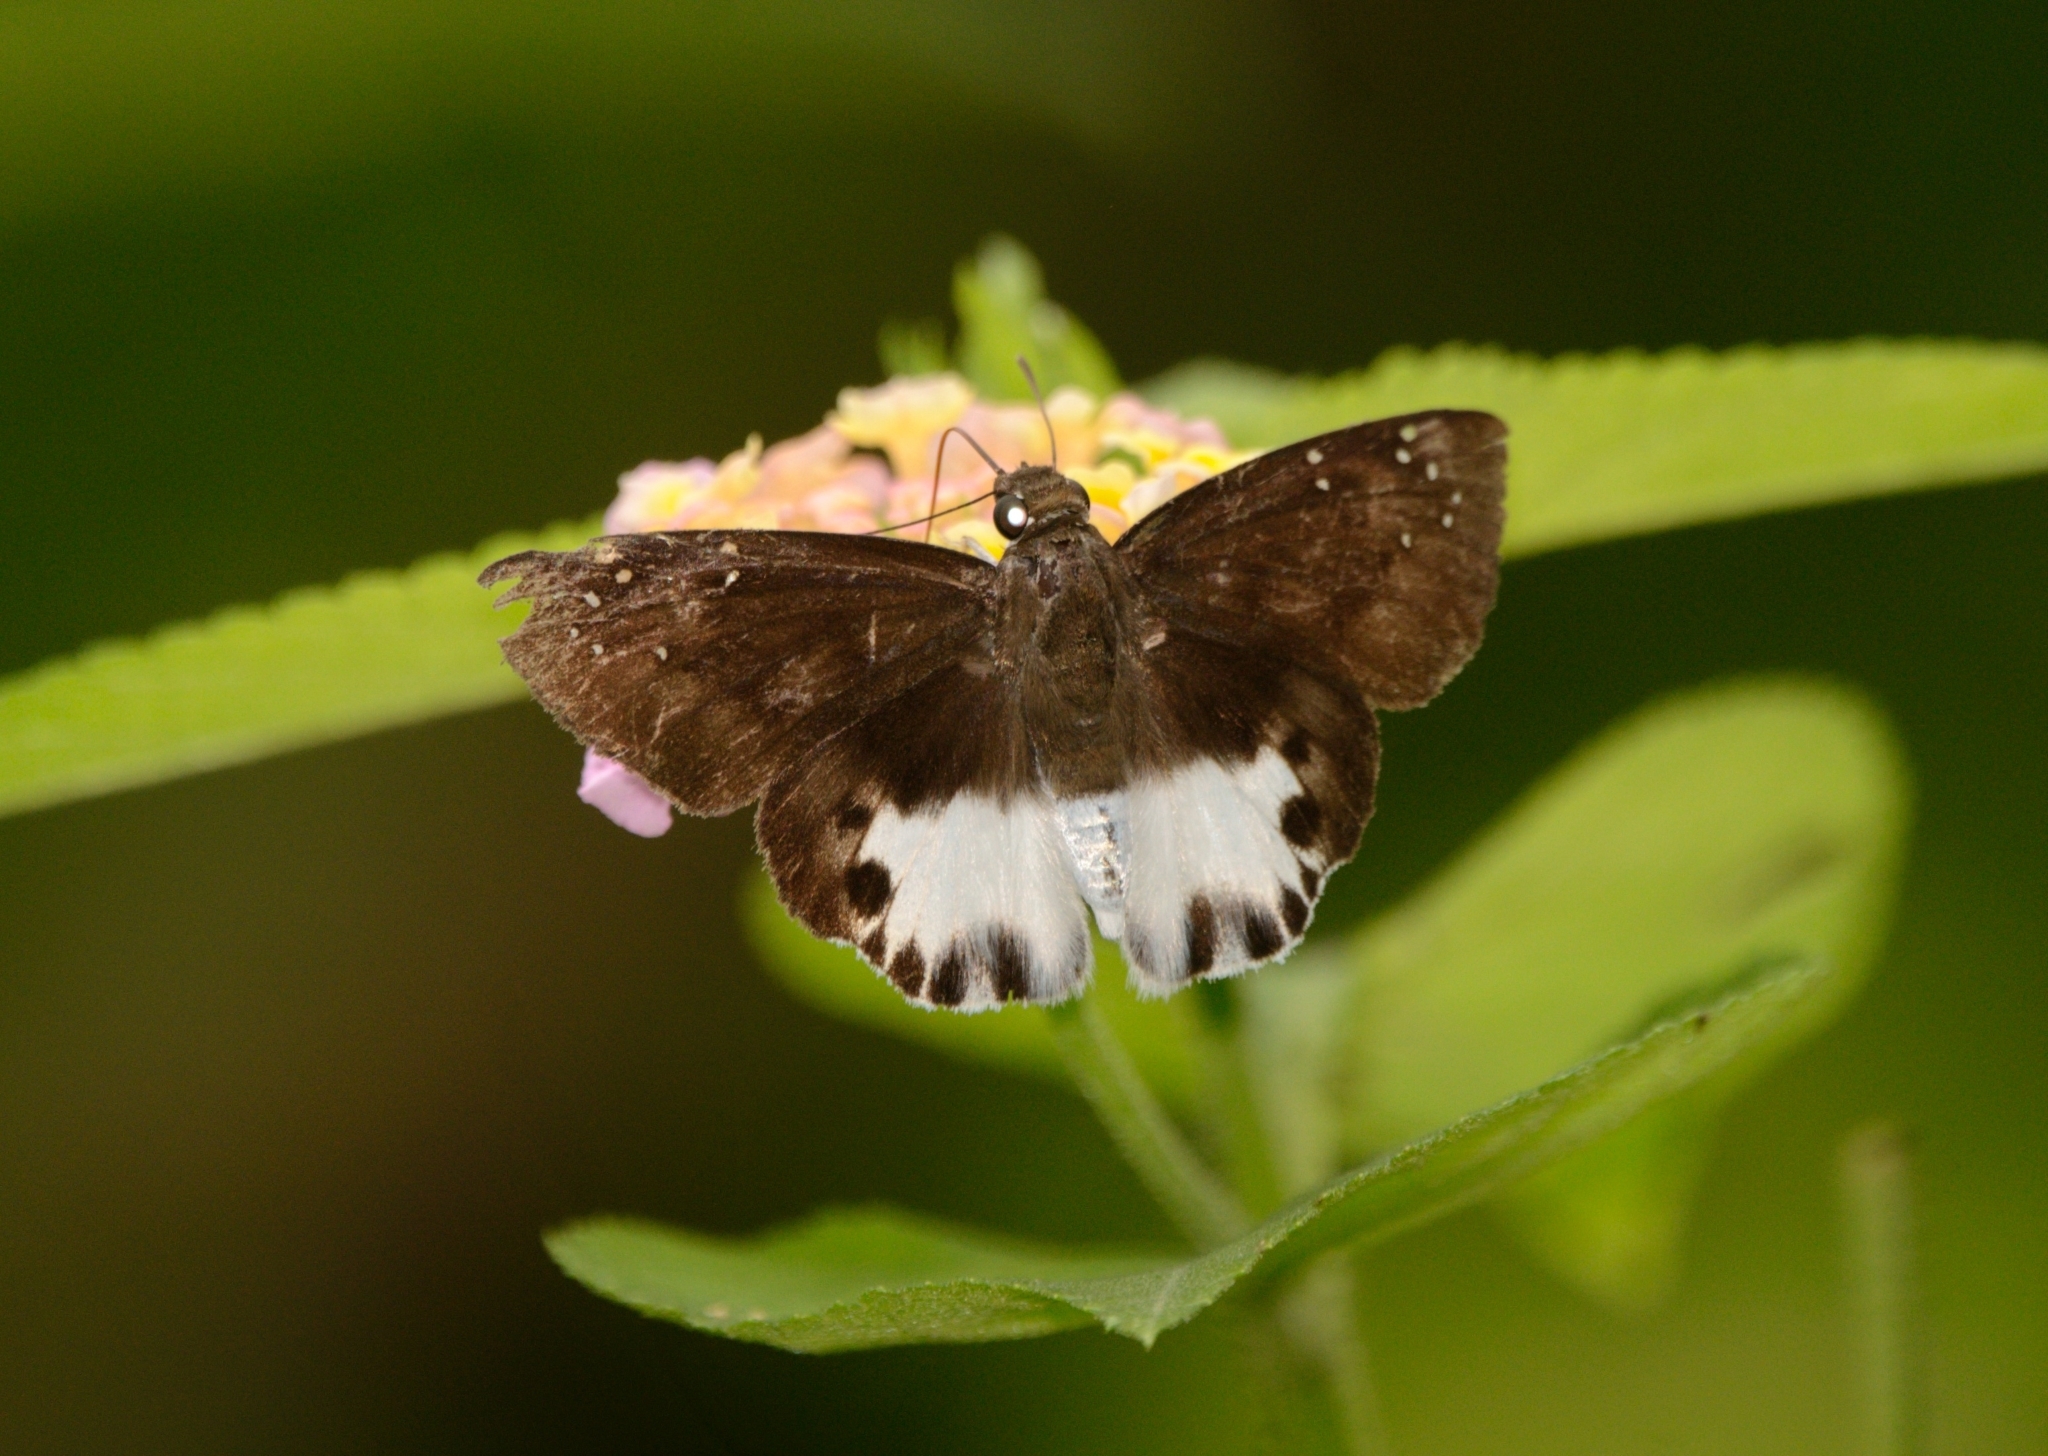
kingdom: Animalia
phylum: Arthropoda
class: Insecta
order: Lepidoptera
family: Hesperiidae
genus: Tagiades
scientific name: Tagiades litigiosa
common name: Water snow flat
